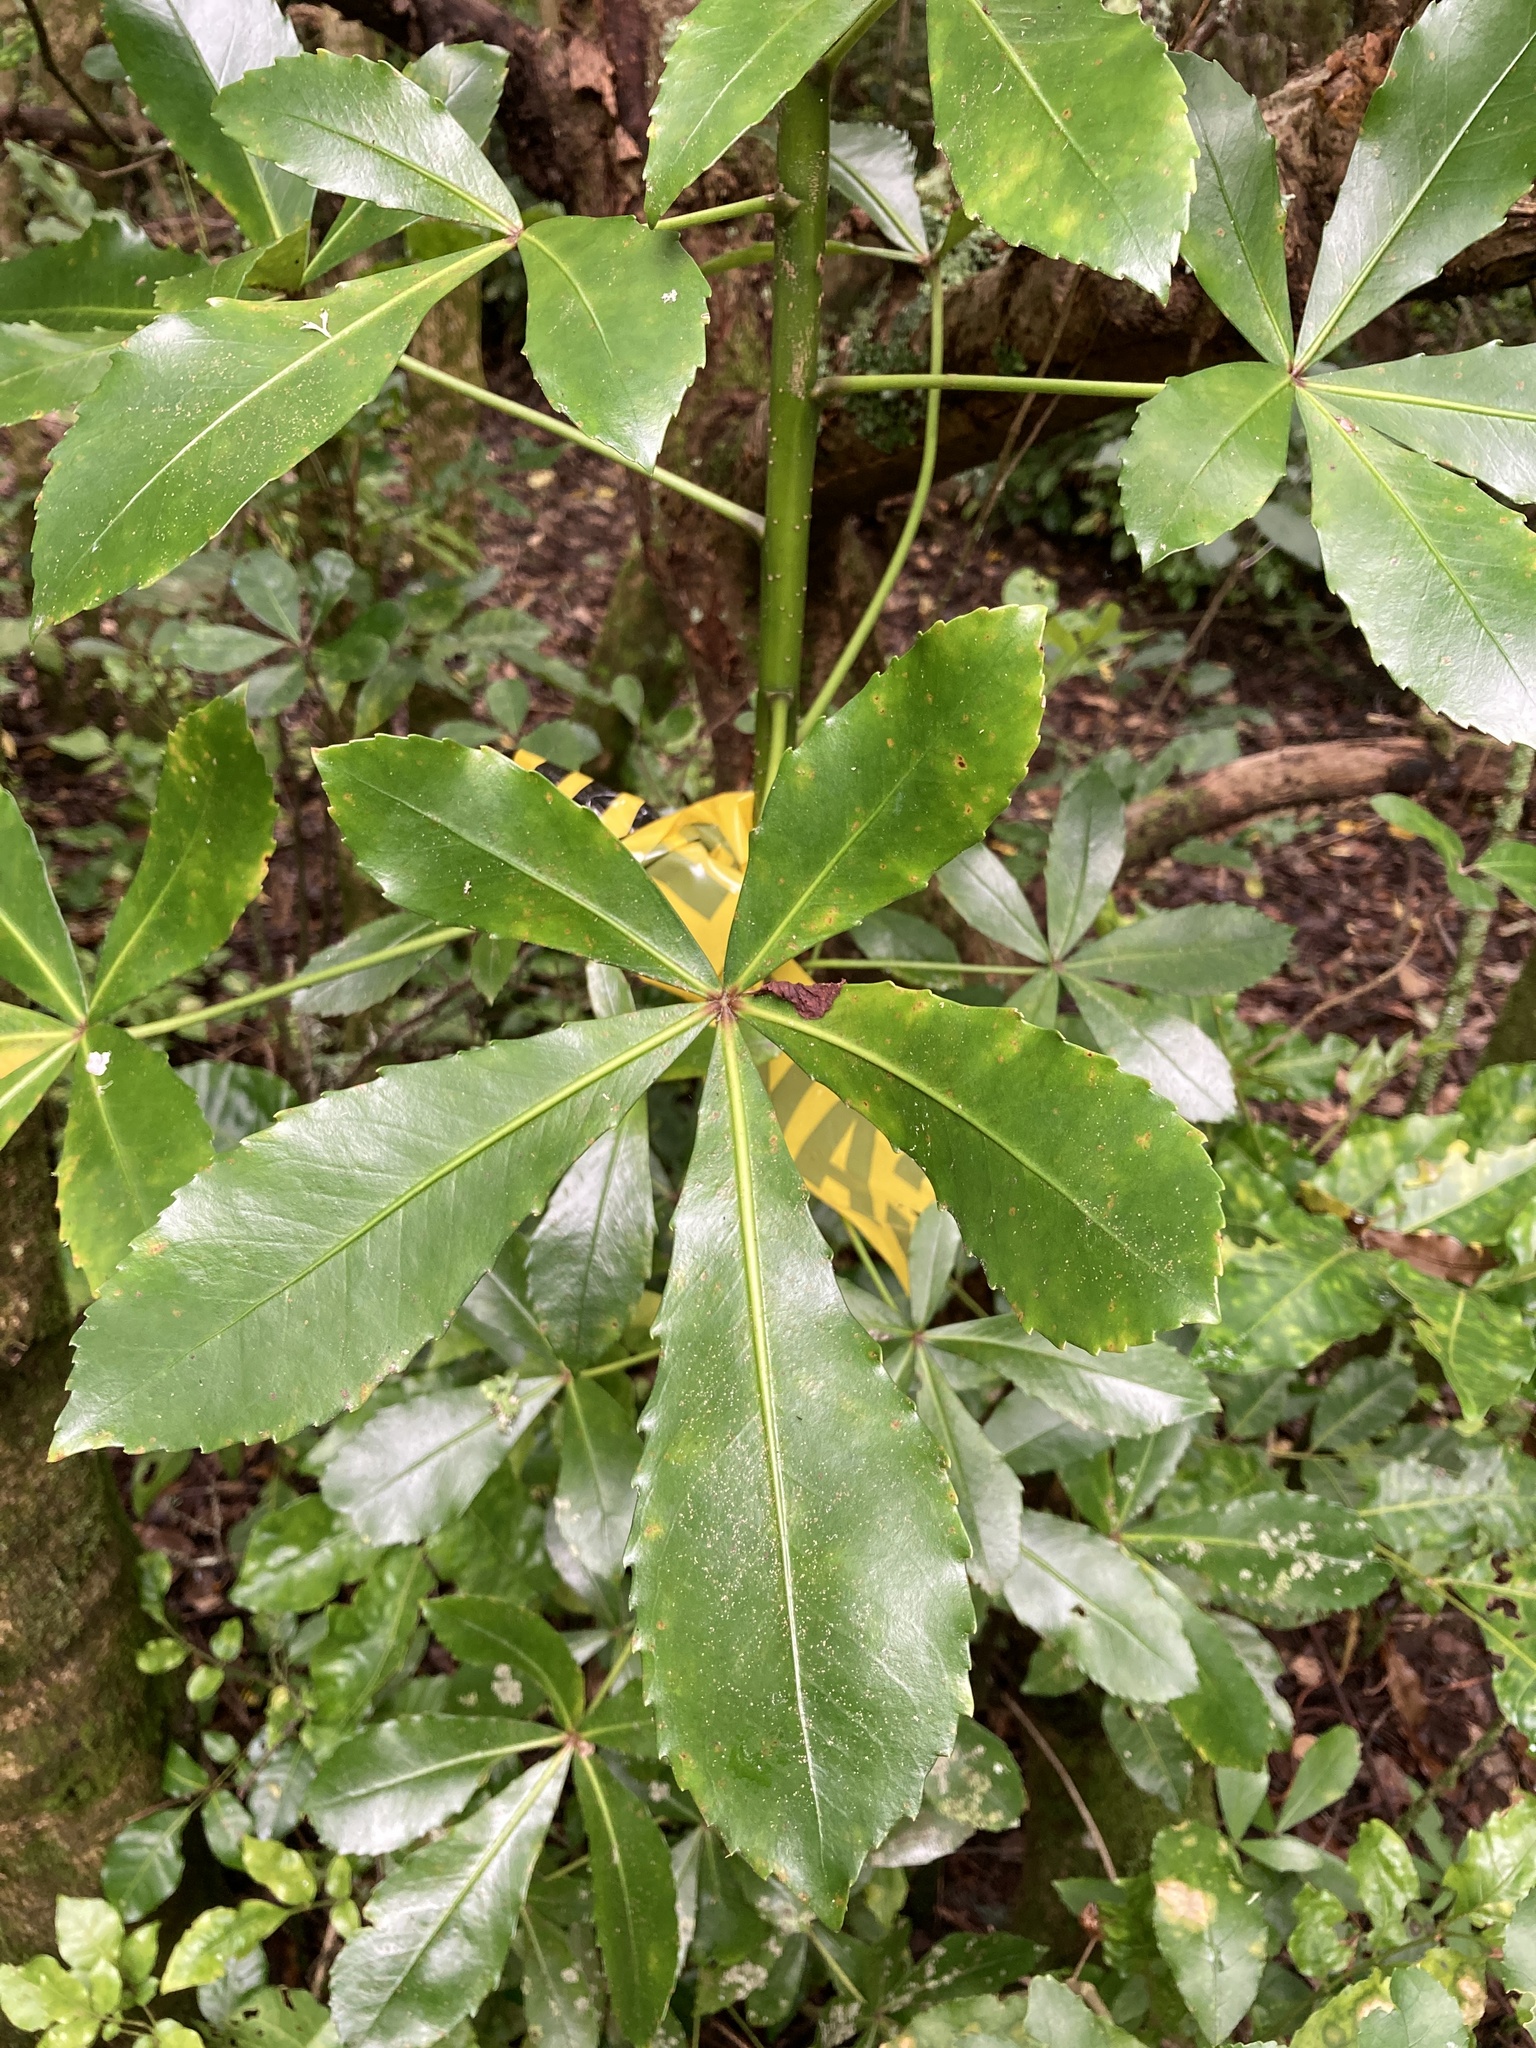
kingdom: Plantae
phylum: Tracheophyta
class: Magnoliopsida
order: Apiales
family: Araliaceae
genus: Pseudopanax
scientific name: Pseudopanax lessonii
